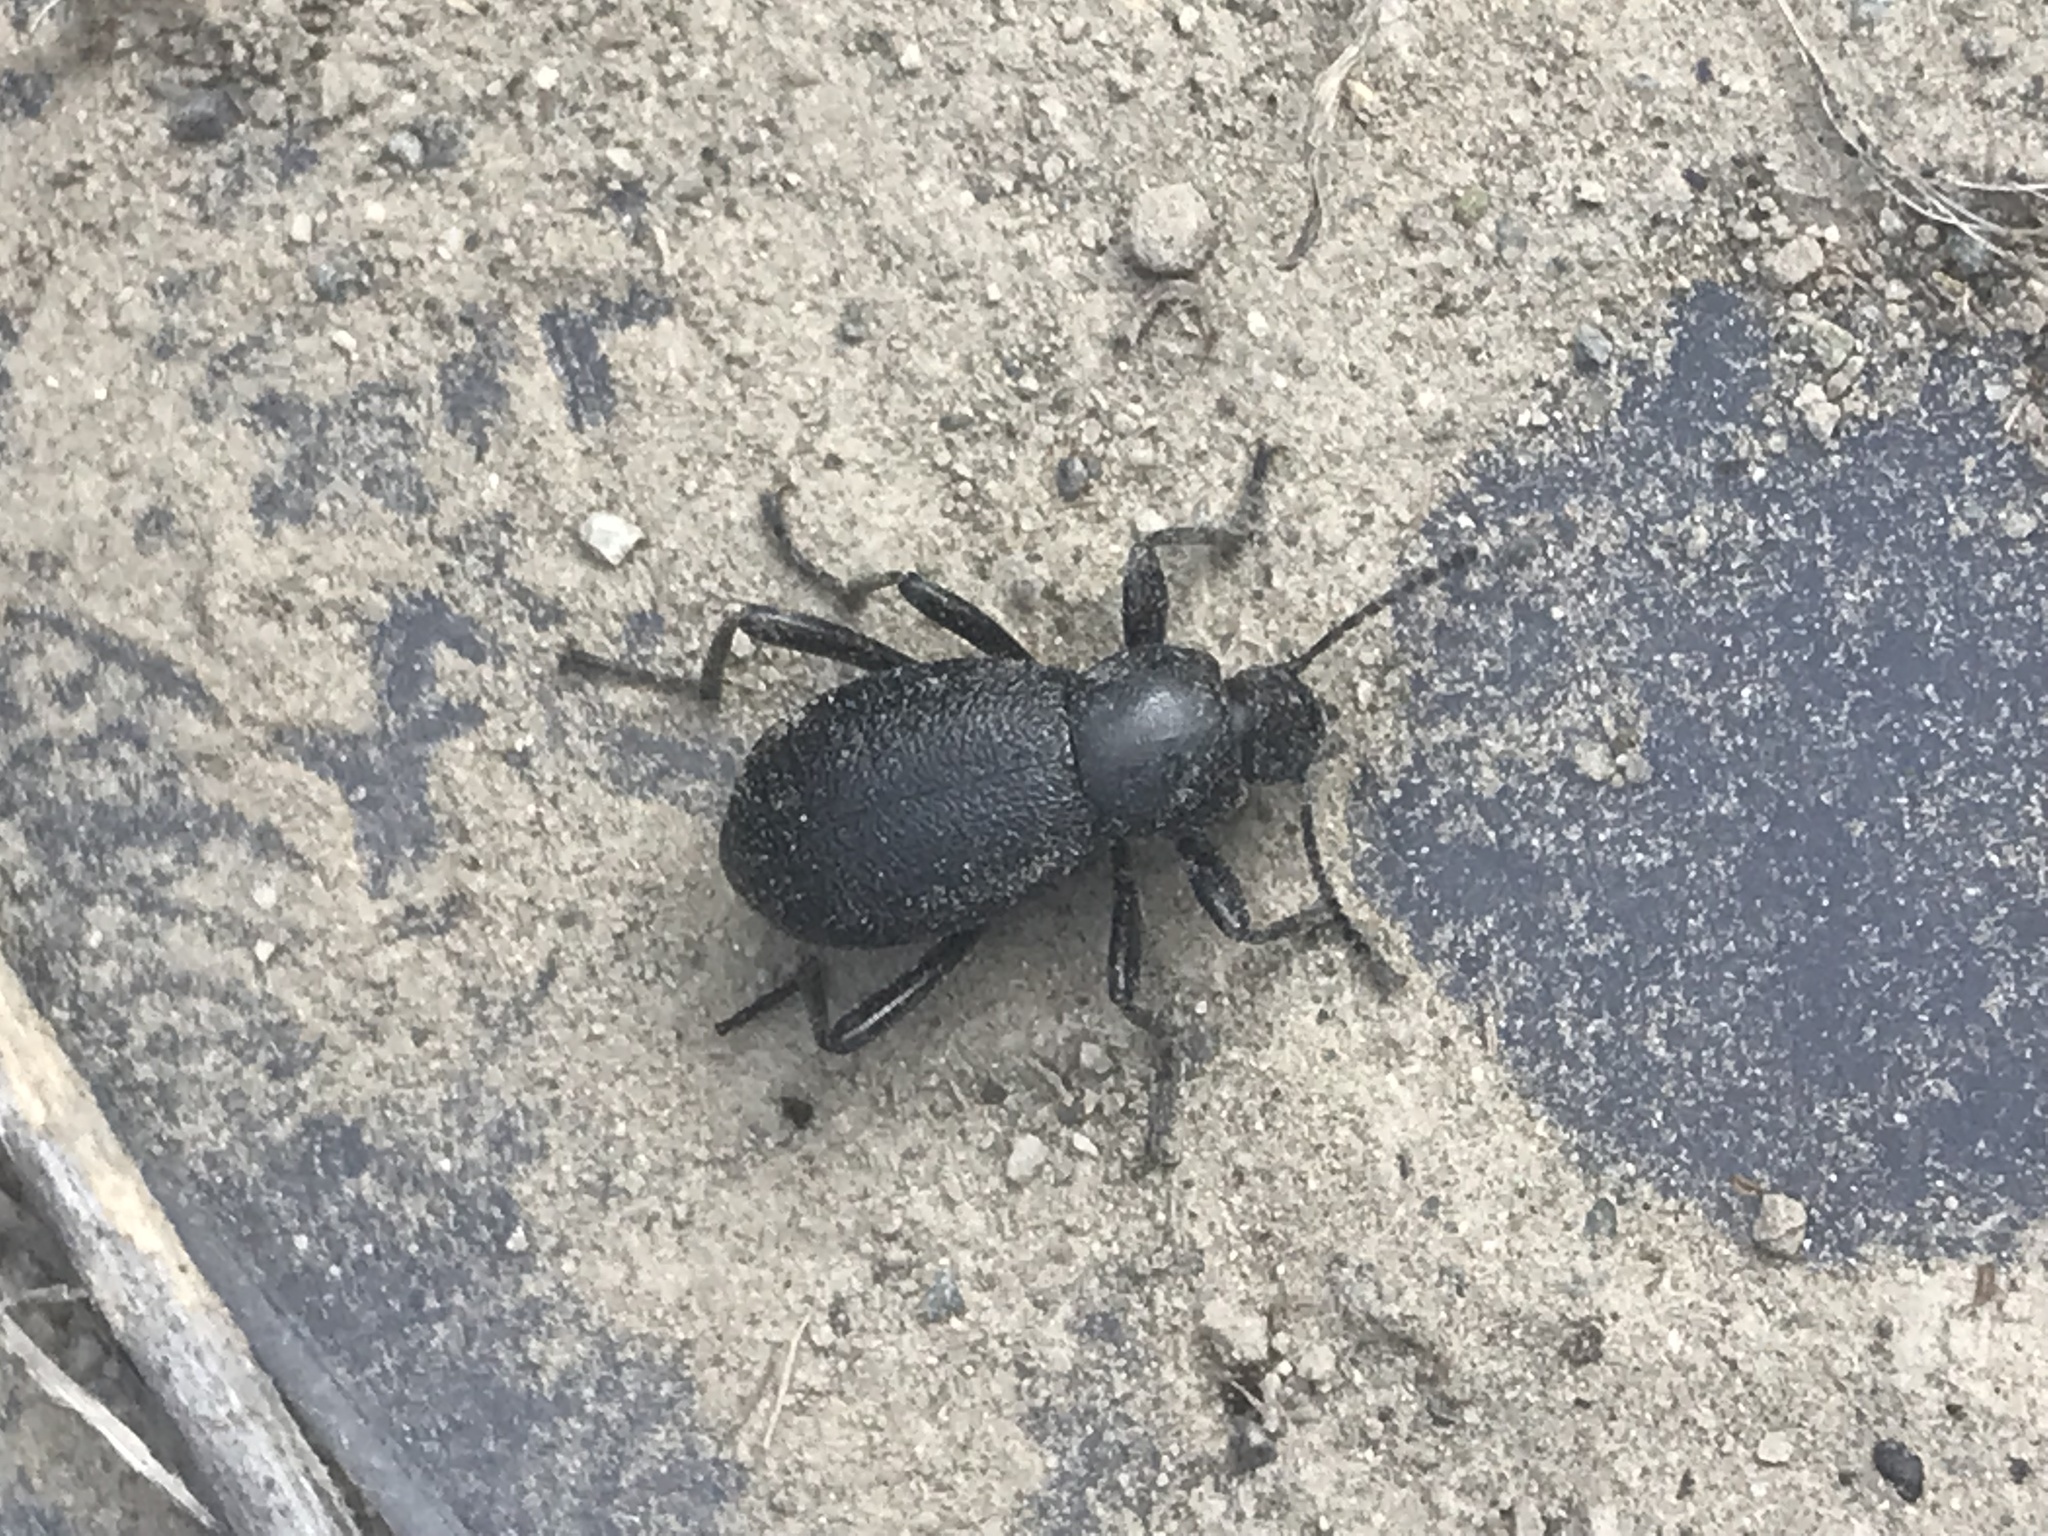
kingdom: Animalia
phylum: Arthropoda
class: Insecta
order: Coleoptera
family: Tenebrionidae
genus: Eleodes
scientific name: Eleodes granulata
